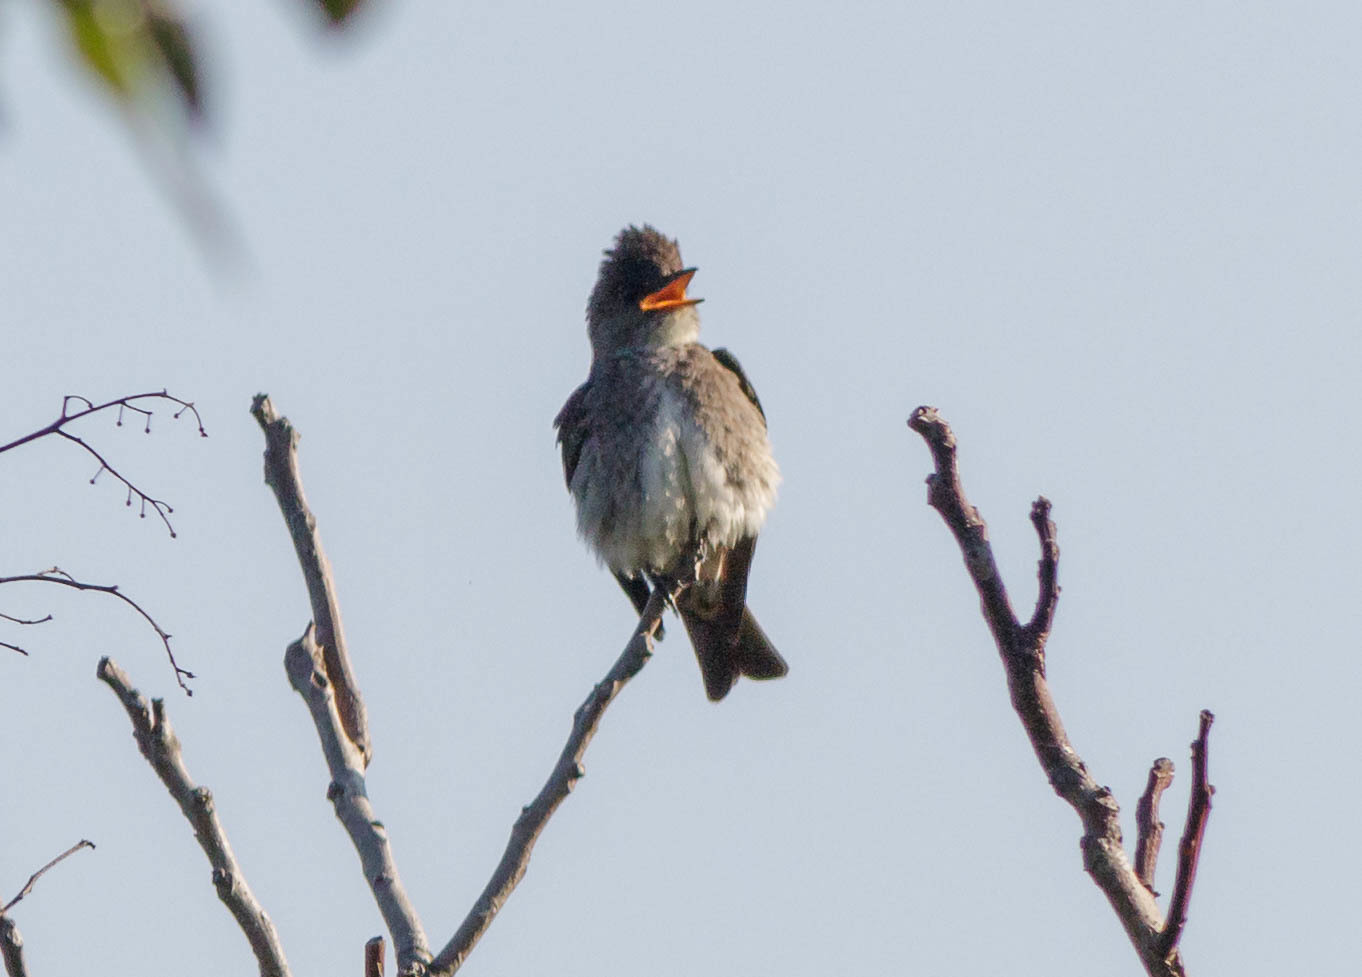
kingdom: Animalia
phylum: Chordata
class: Aves
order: Passeriformes
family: Tyrannidae
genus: Contopus
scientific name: Contopus cooperi
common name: Olive-sided flycatcher
